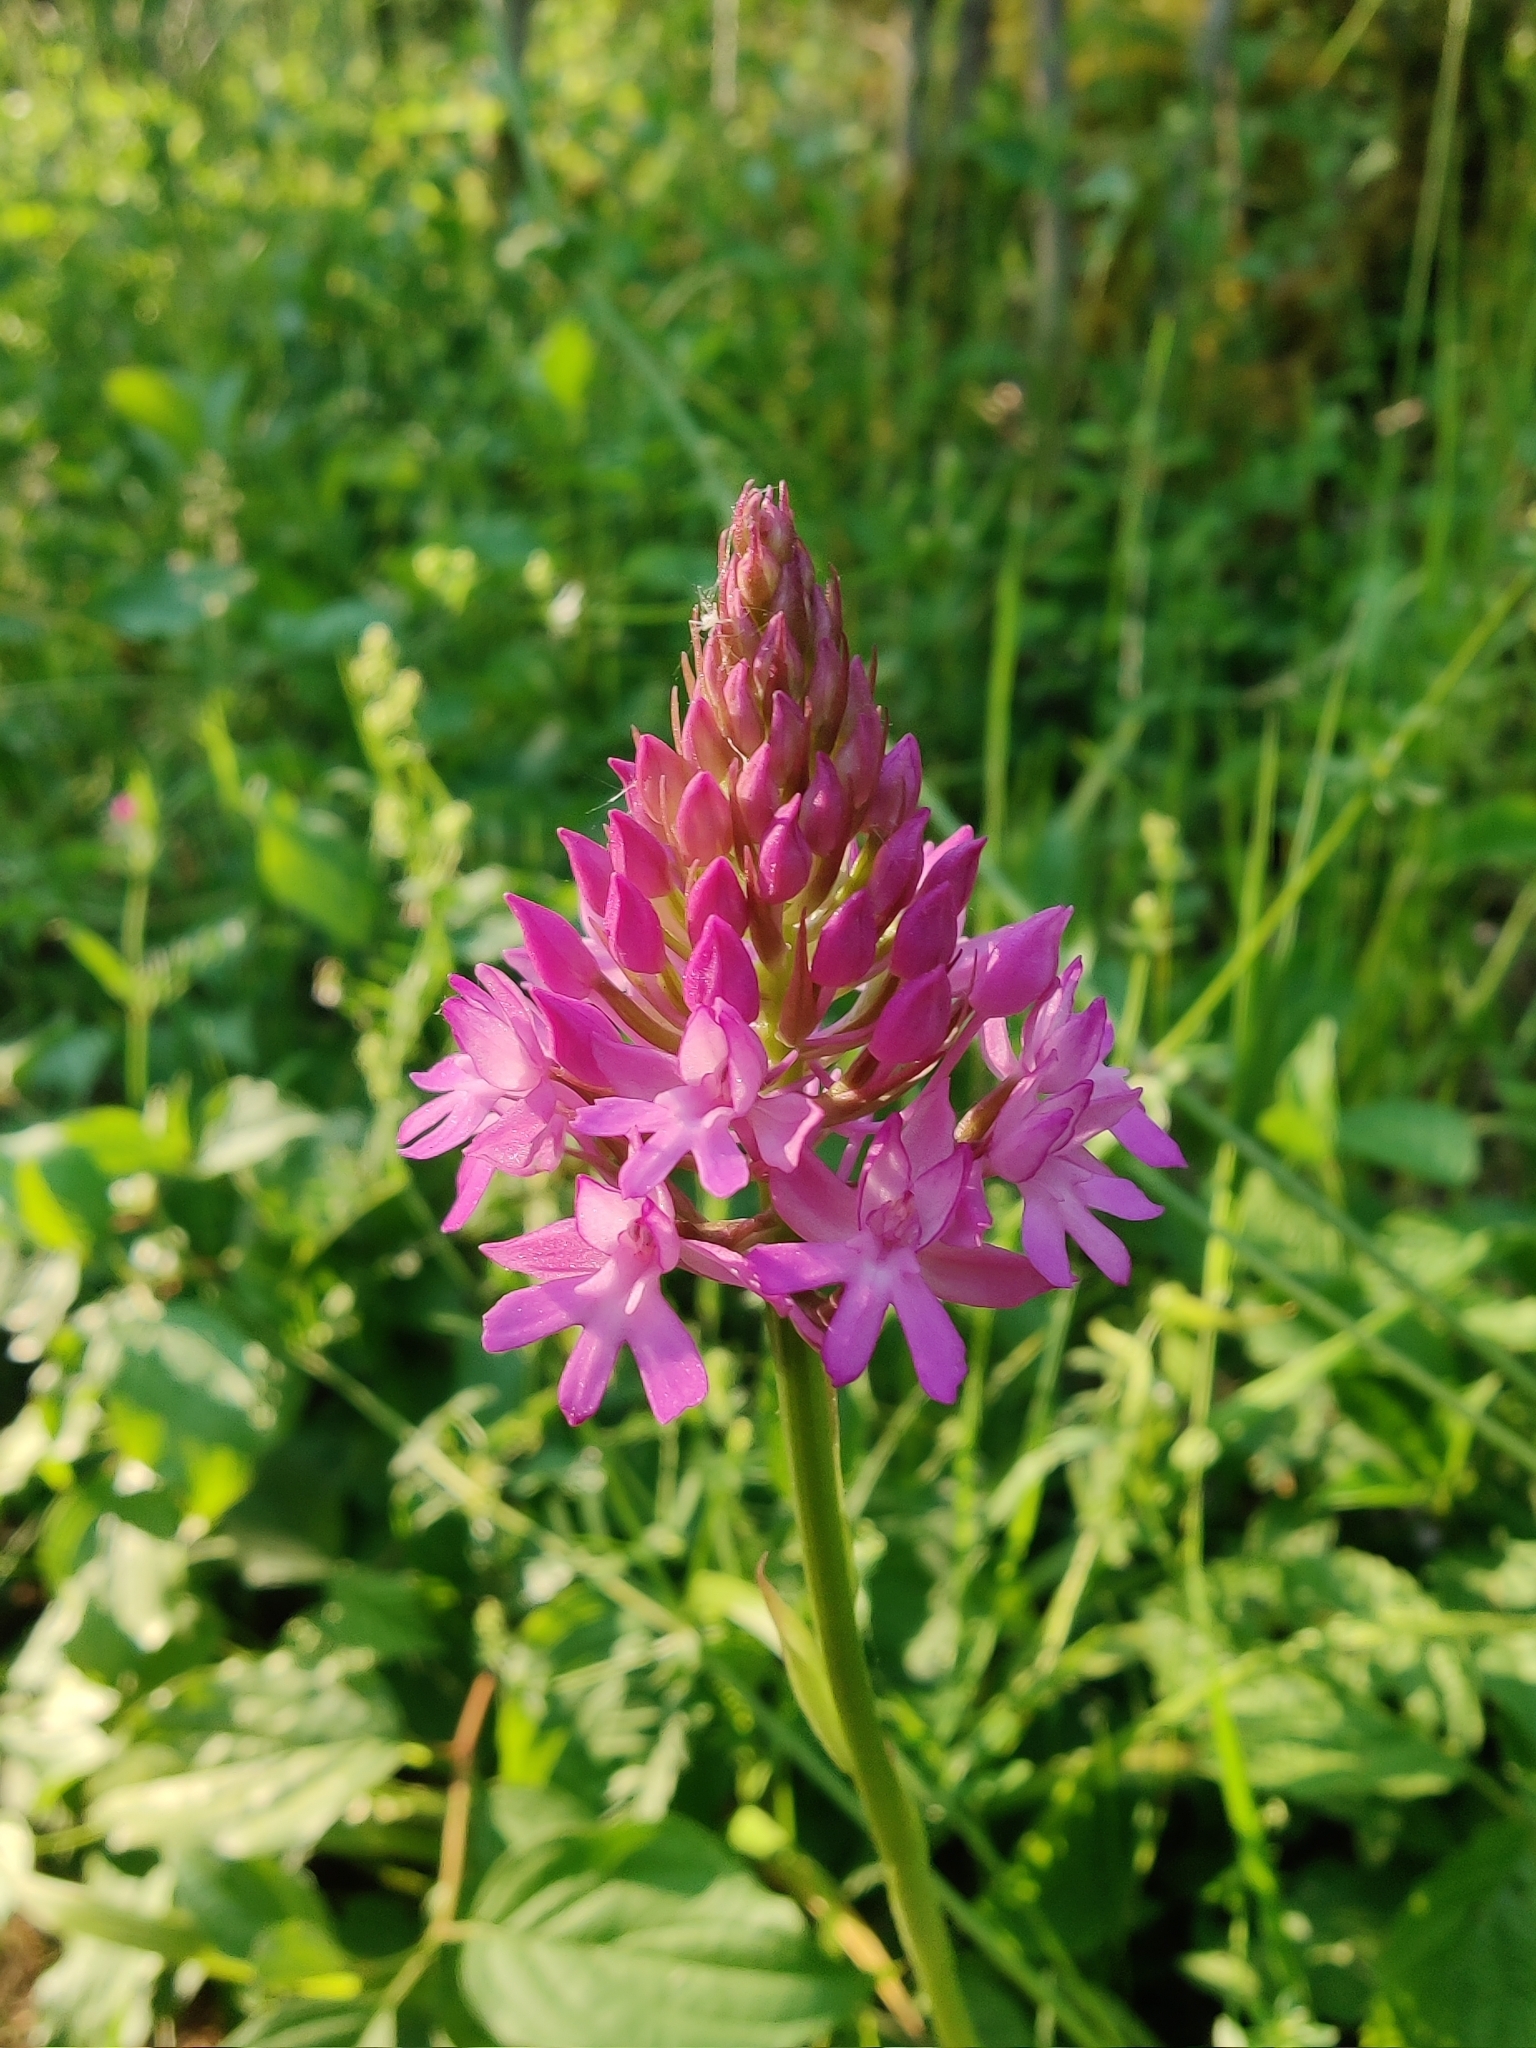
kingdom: Plantae
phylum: Tracheophyta
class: Liliopsida
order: Asparagales
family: Orchidaceae
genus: Anacamptis
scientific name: Anacamptis pyramidalis
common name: Pyramidal orchid
